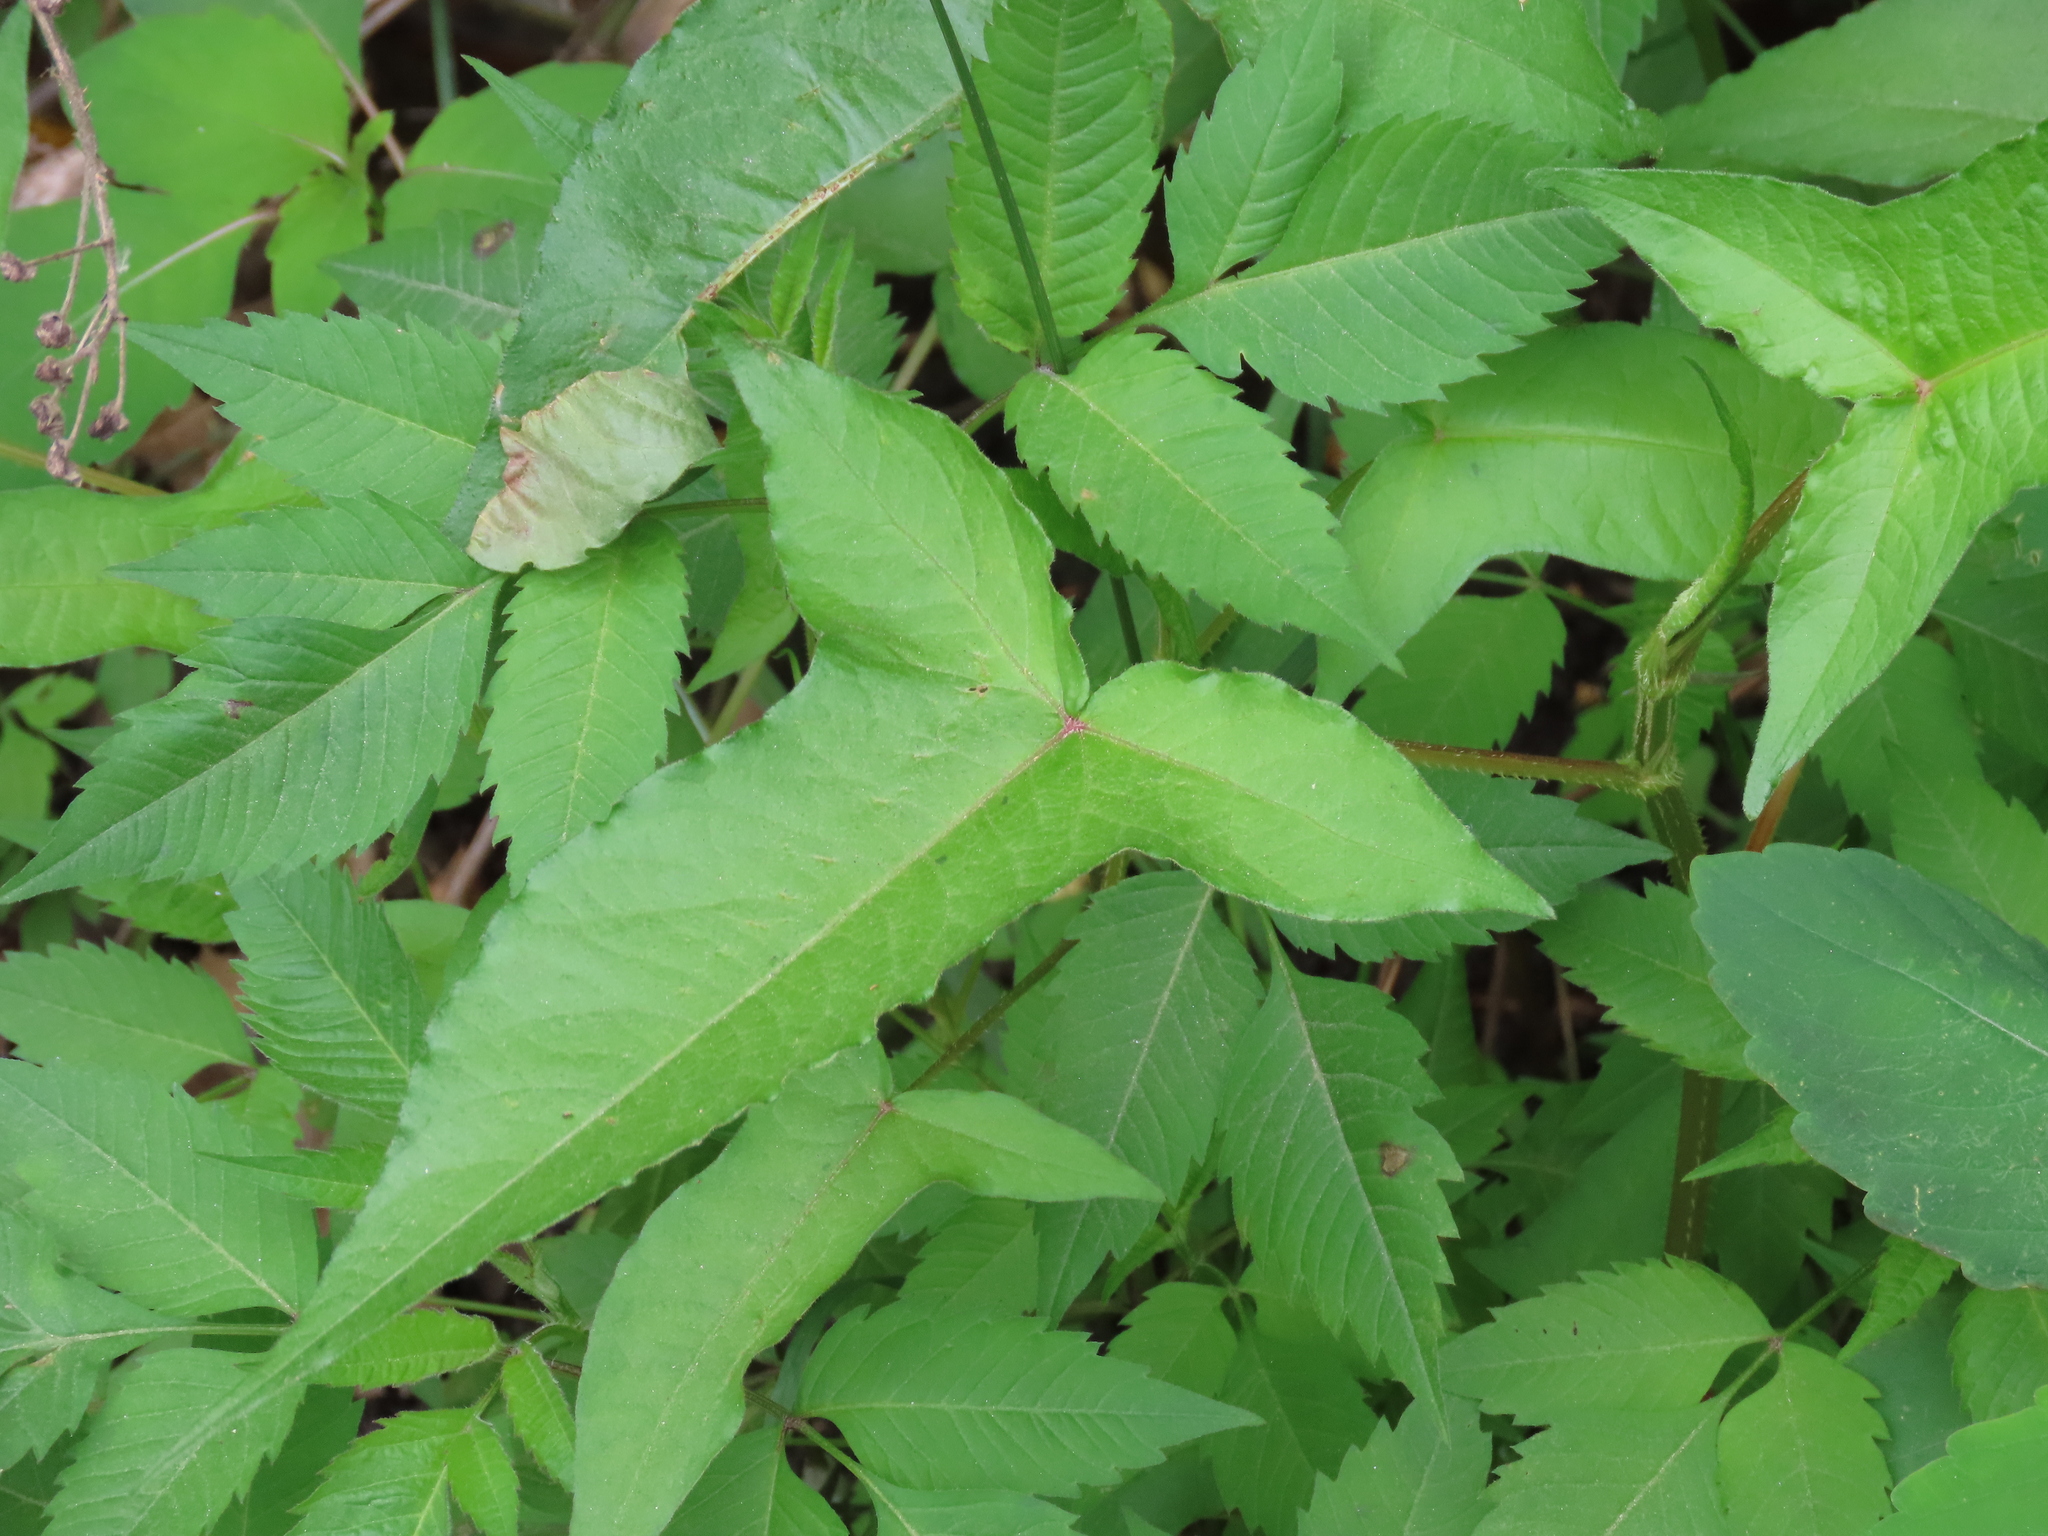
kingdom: Plantae
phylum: Tracheophyta
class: Magnoliopsida
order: Caryophyllales
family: Polygonaceae
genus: Persicaria
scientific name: Persicaria arifolia
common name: Halberd-leaved tear-thumb
